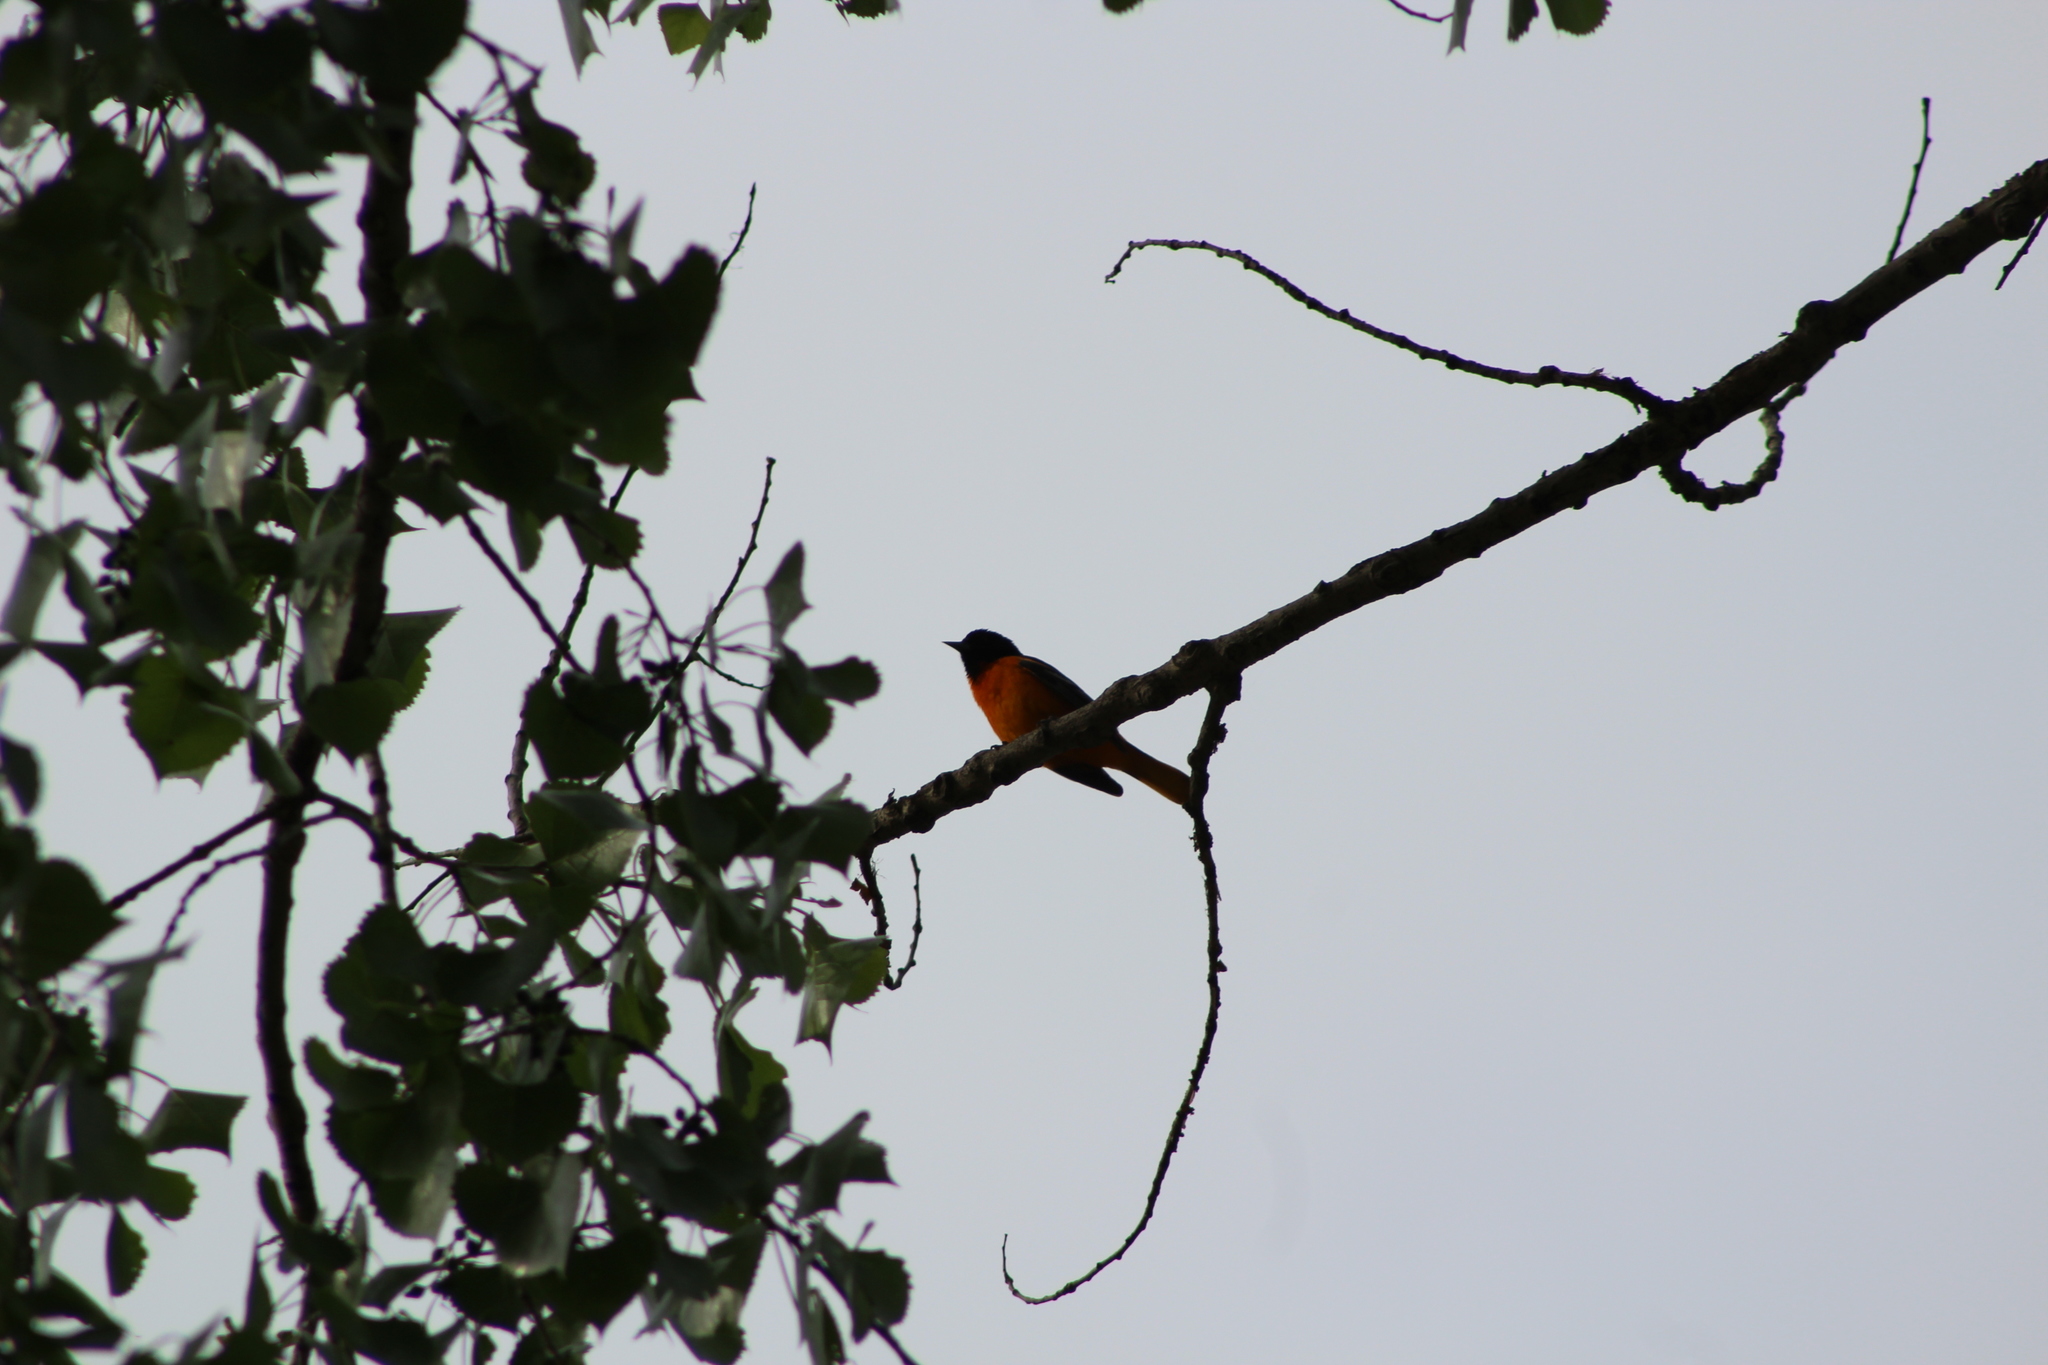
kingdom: Animalia
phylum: Chordata
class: Aves
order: Passeriformes
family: Icteridae
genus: Icterus
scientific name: Icterus galbula
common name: Baltimore oriole
